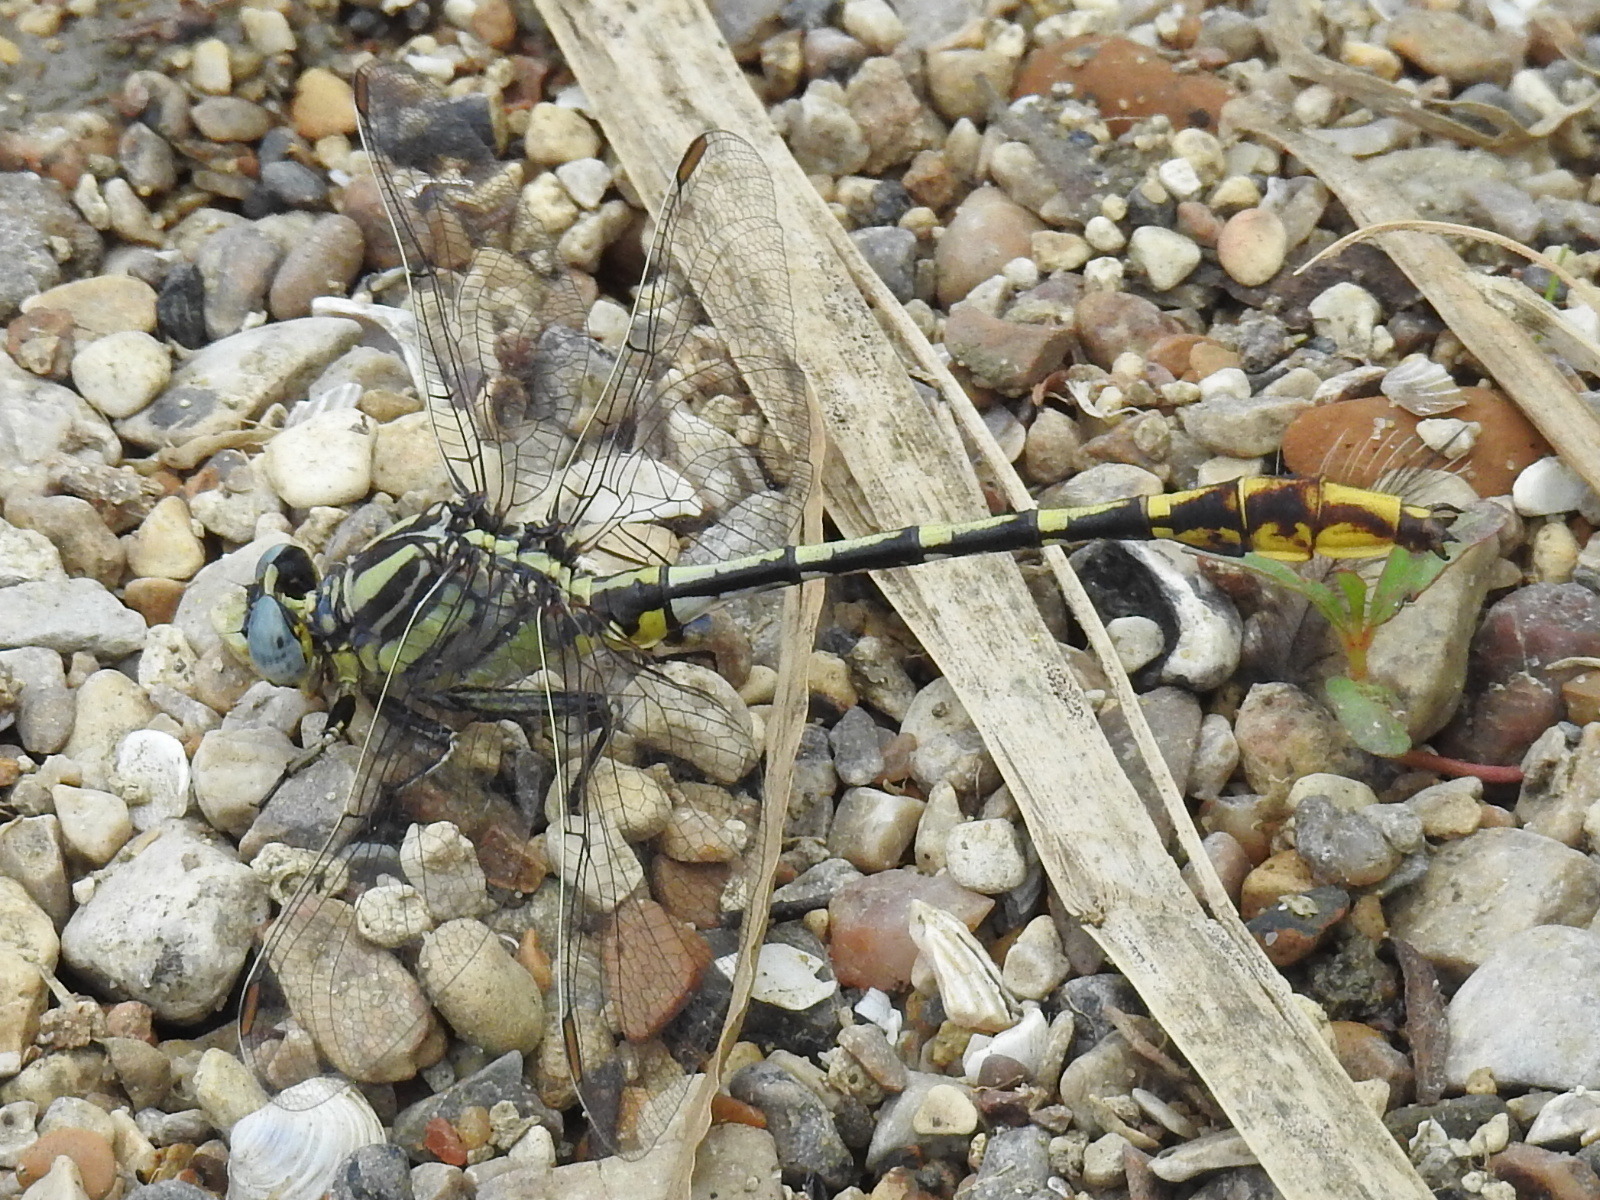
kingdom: Animalia
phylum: Arthropoda
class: Insecta
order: Odonata
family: Gomphidae
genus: Phanogomphus
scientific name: Phanogomphus militaris
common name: Sulphur-tipped clubtail
